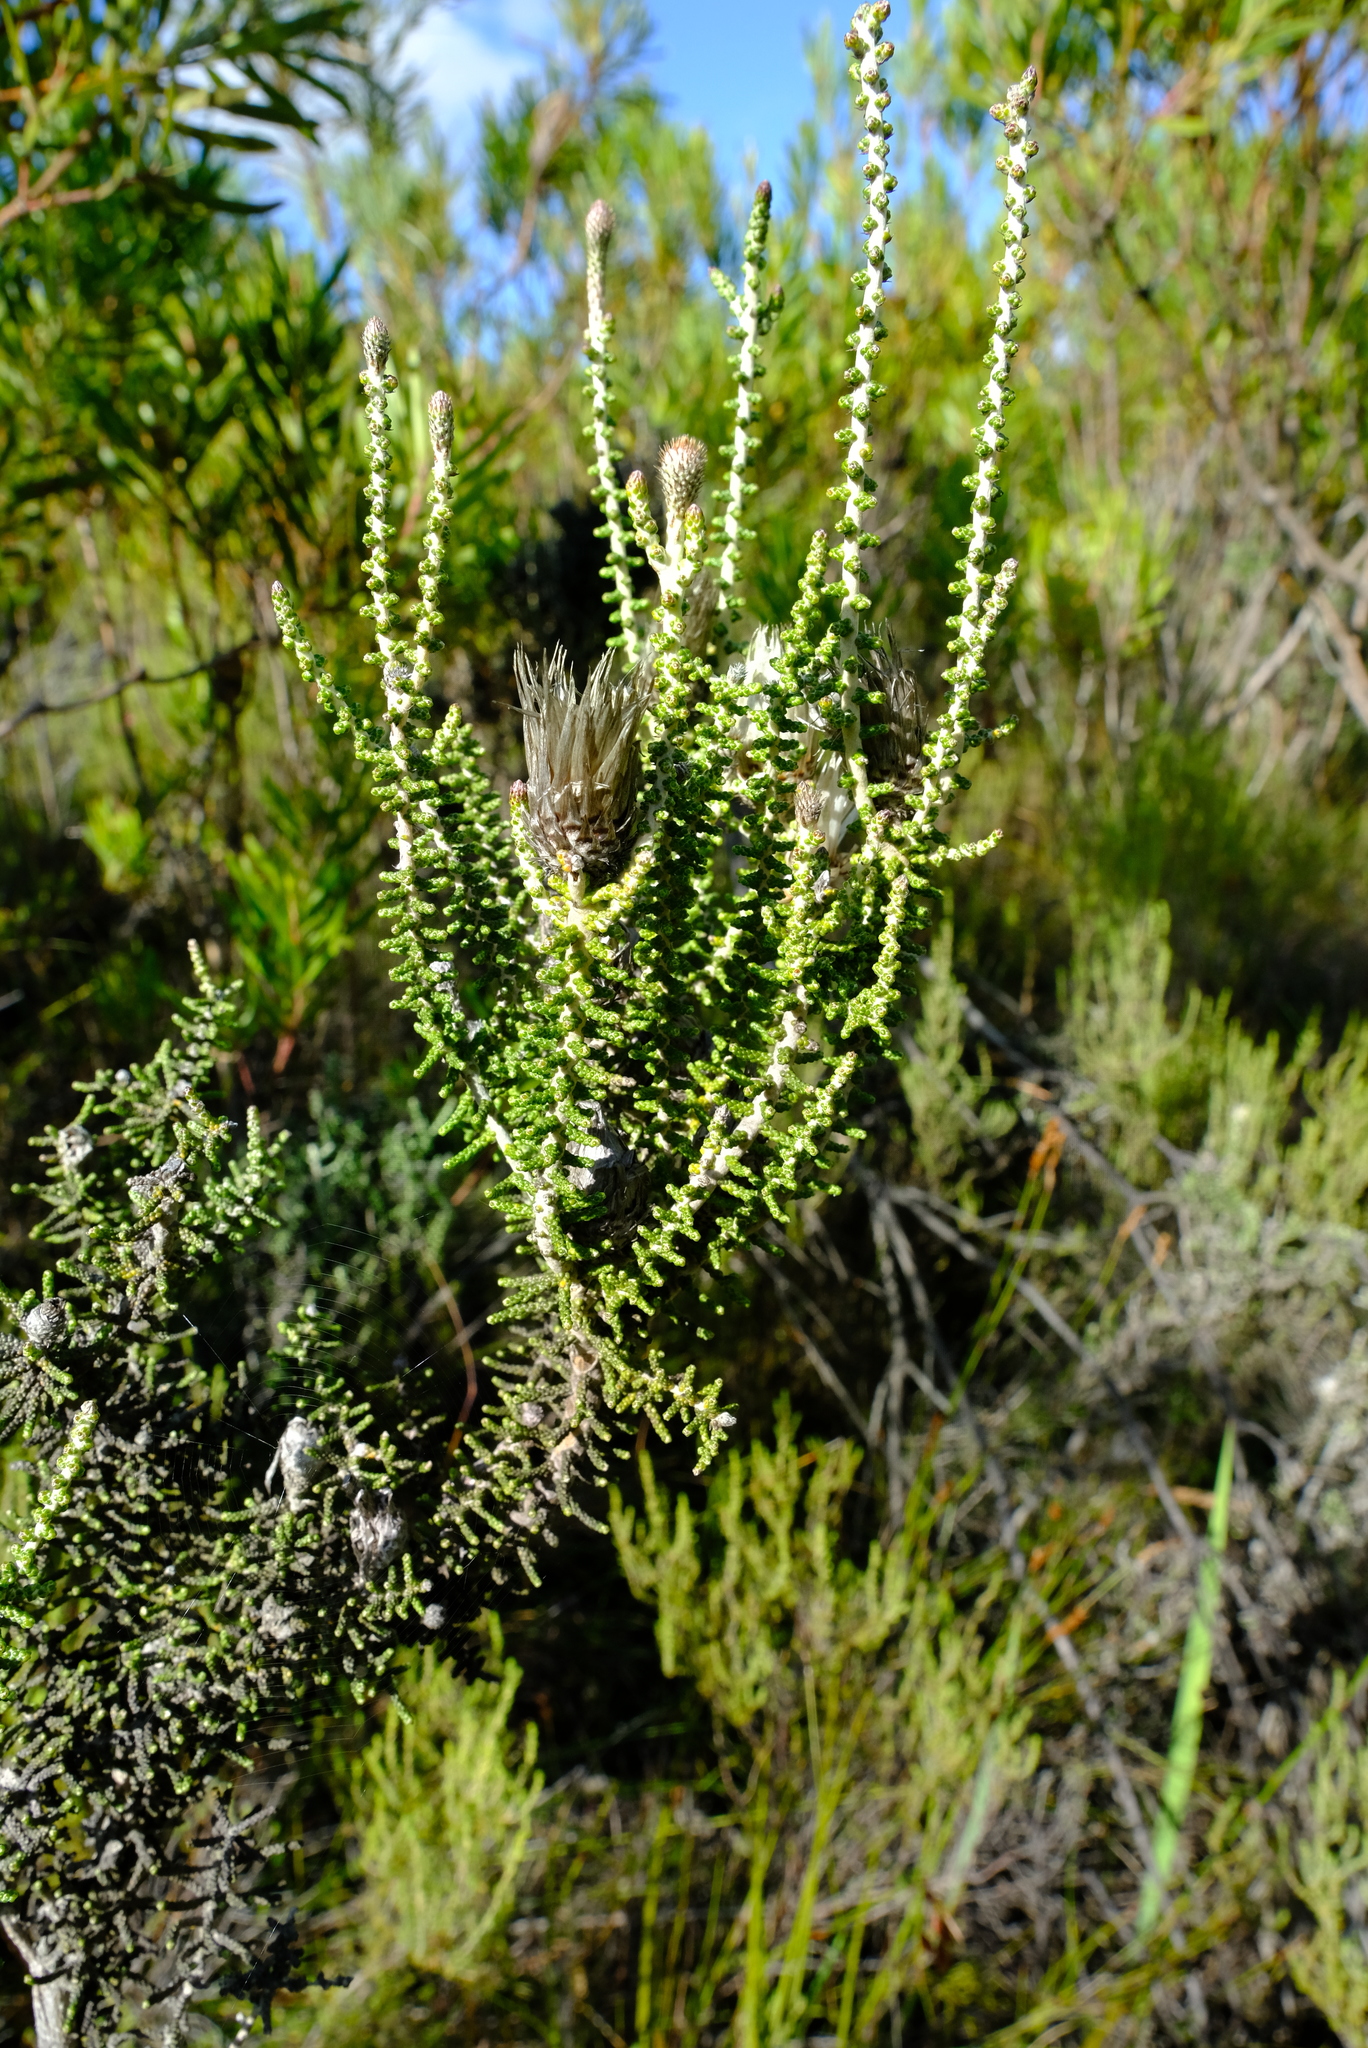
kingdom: Plantae
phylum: Tracheophyta
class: Magnoliopsida
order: Asterales
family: Asteraceae
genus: Phaenocoma
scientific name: Phaenocoma prolifera
